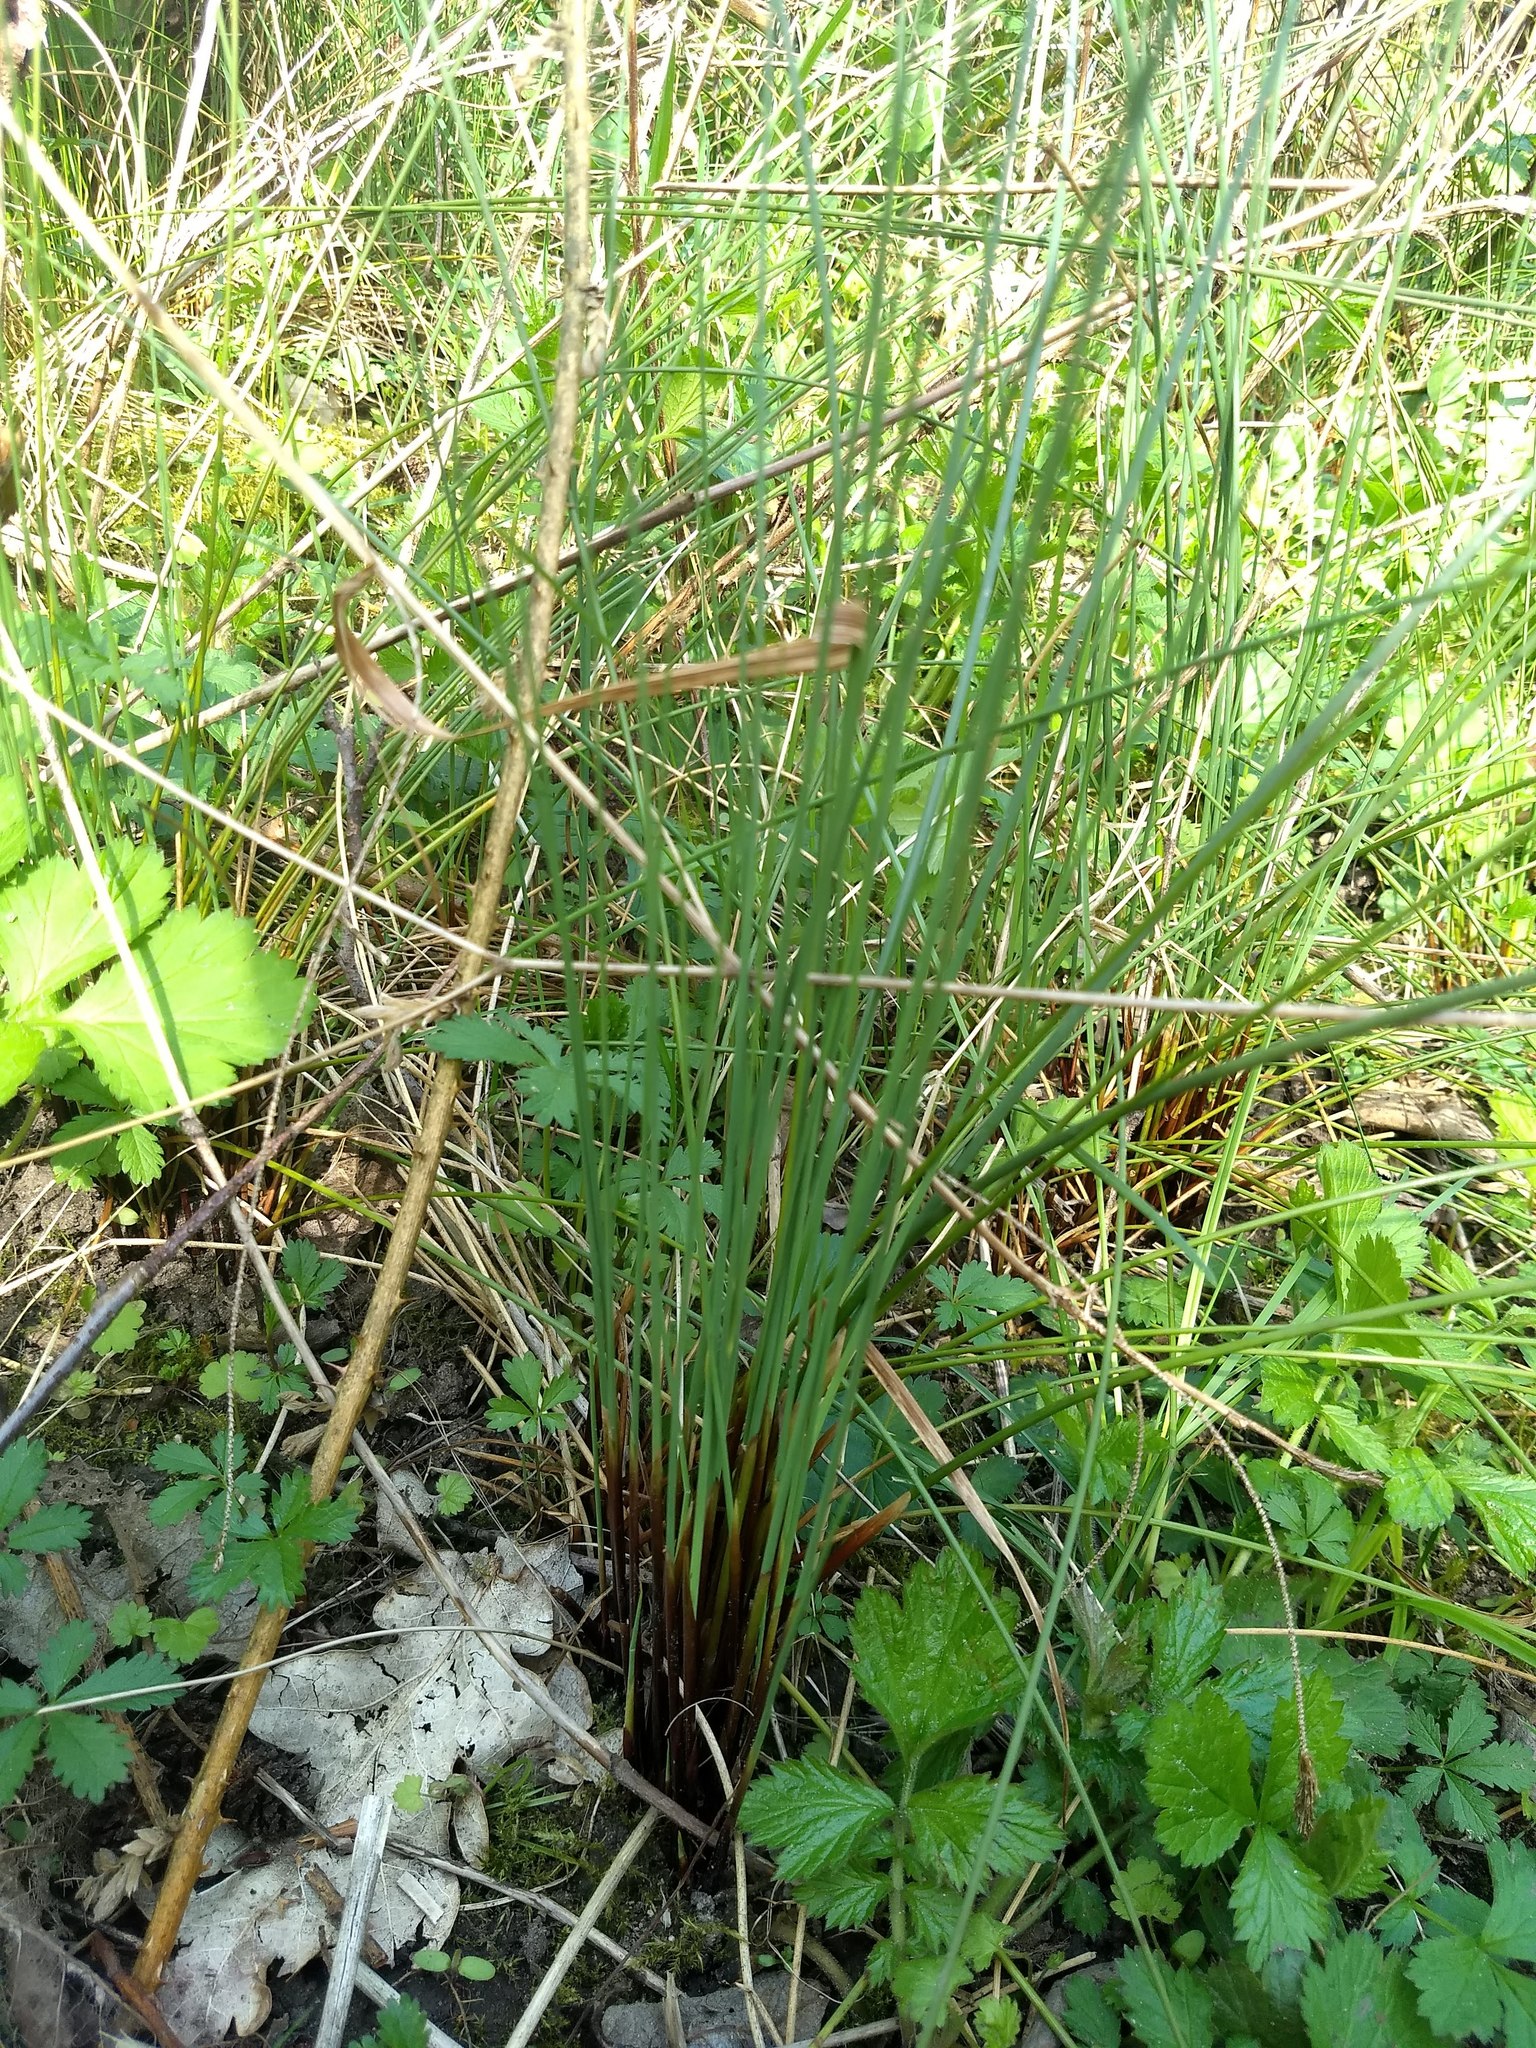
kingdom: Plantae
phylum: Tracheophyta
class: Liliopsida
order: Poales
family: Juncaceae
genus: Juncus
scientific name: Juncus inflexus
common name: Hard rush
